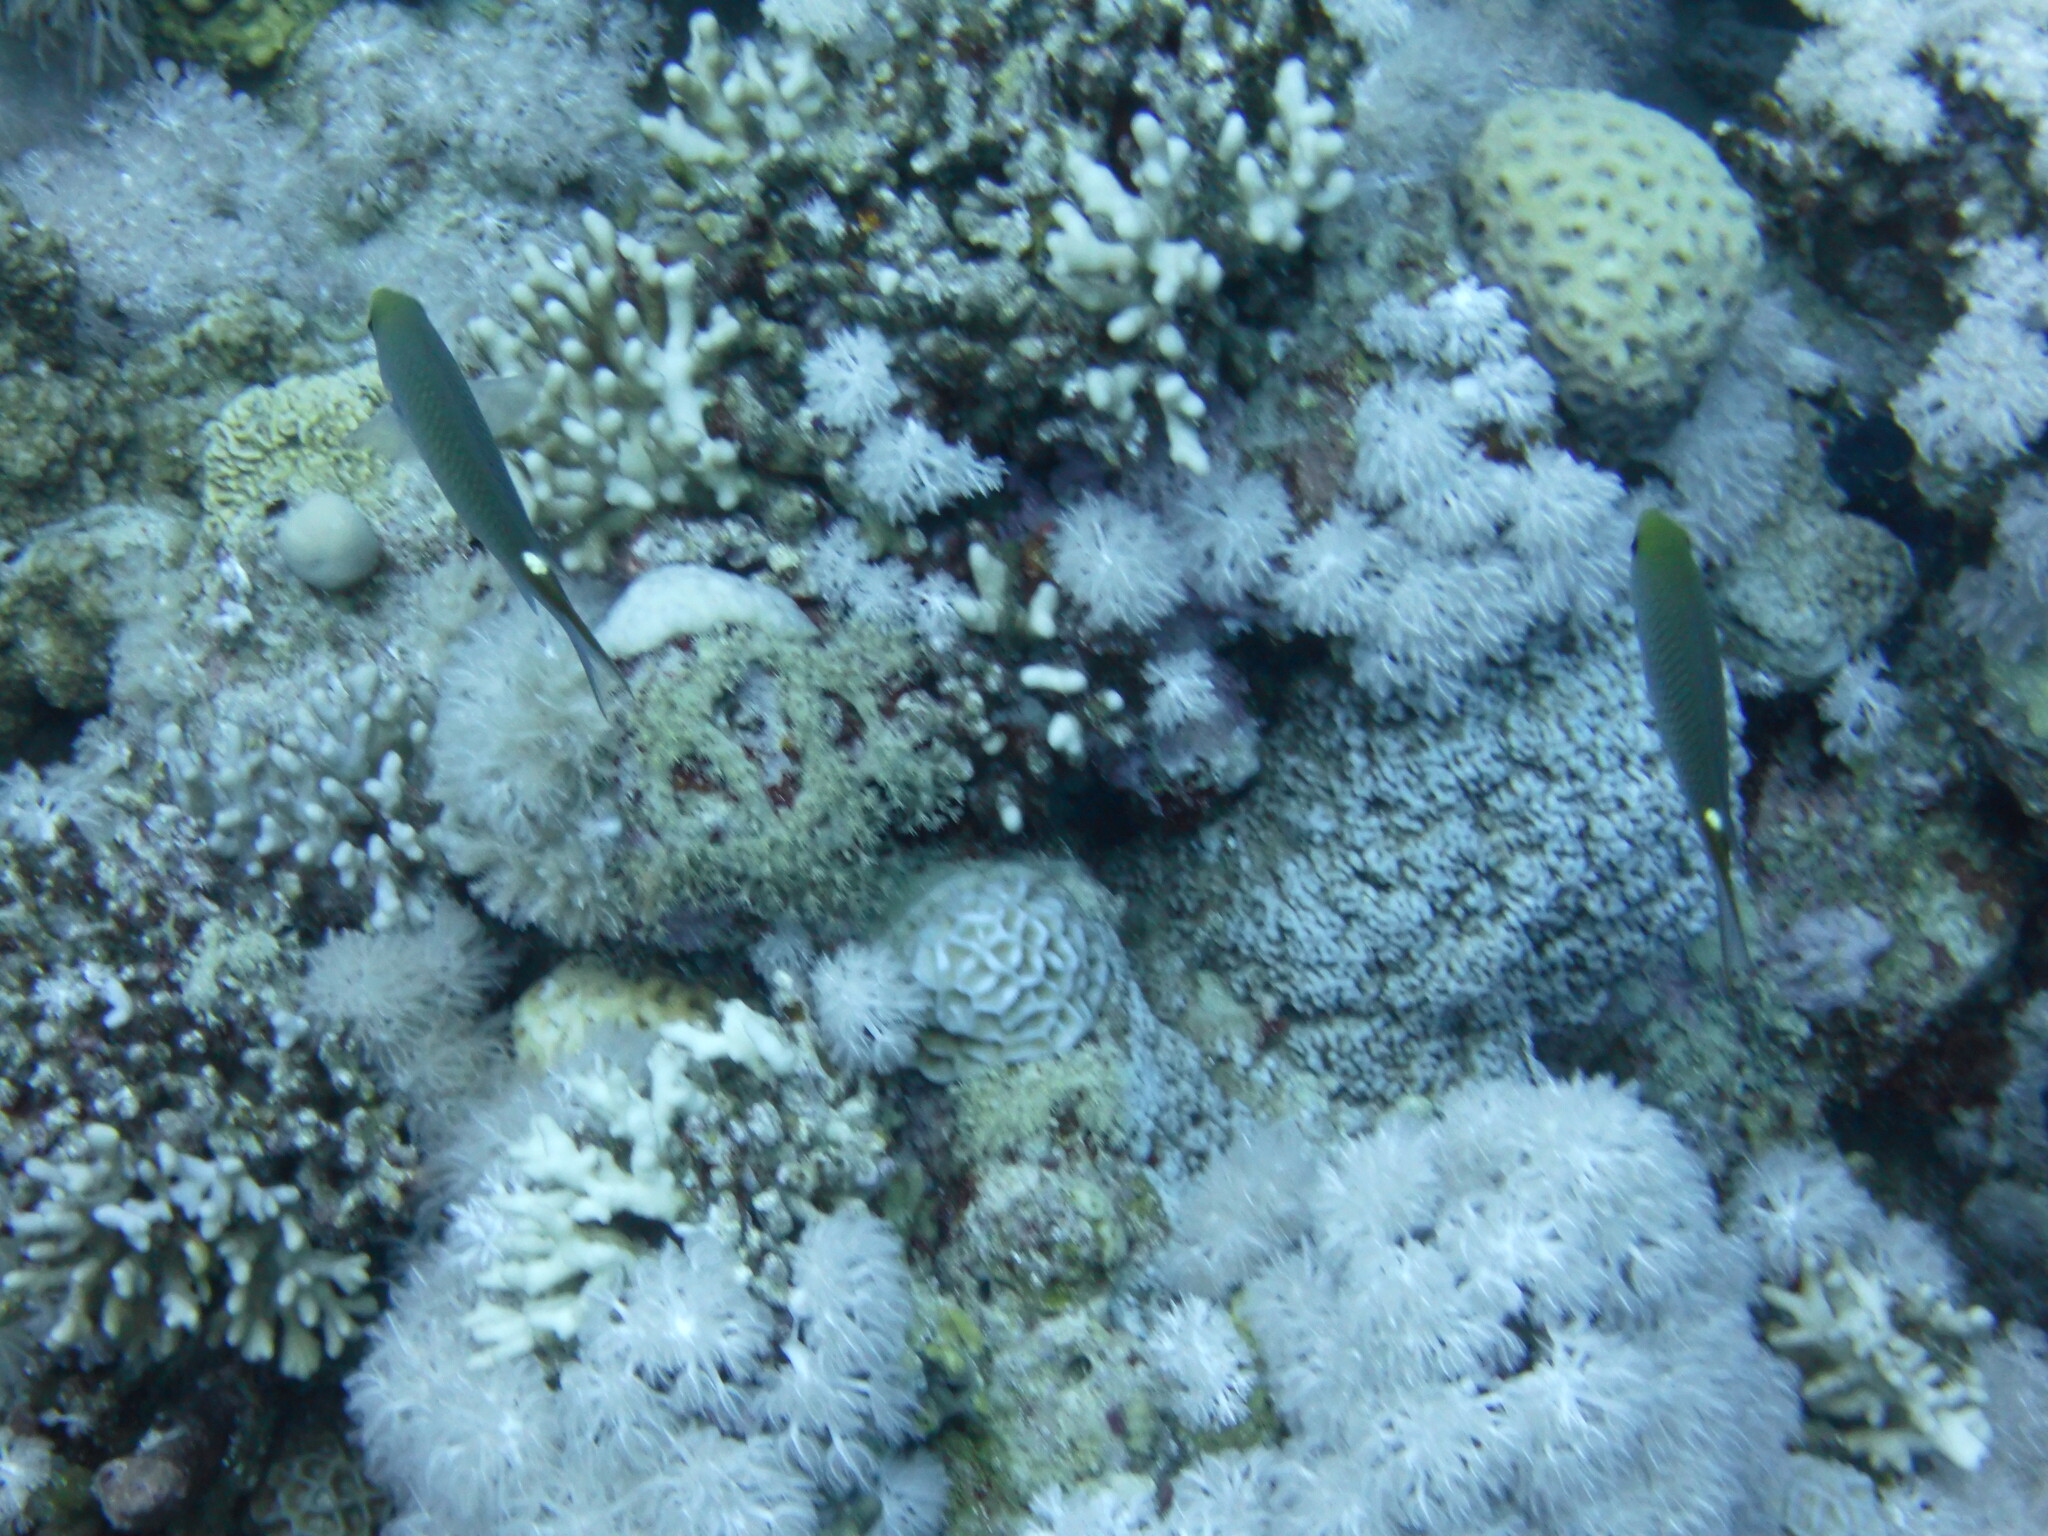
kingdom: Animalia
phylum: Chordata
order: Perciformes
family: Pomacentridae
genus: Neopomacentrus
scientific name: Neopomacentrus miryae
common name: Miry's demoiselle
